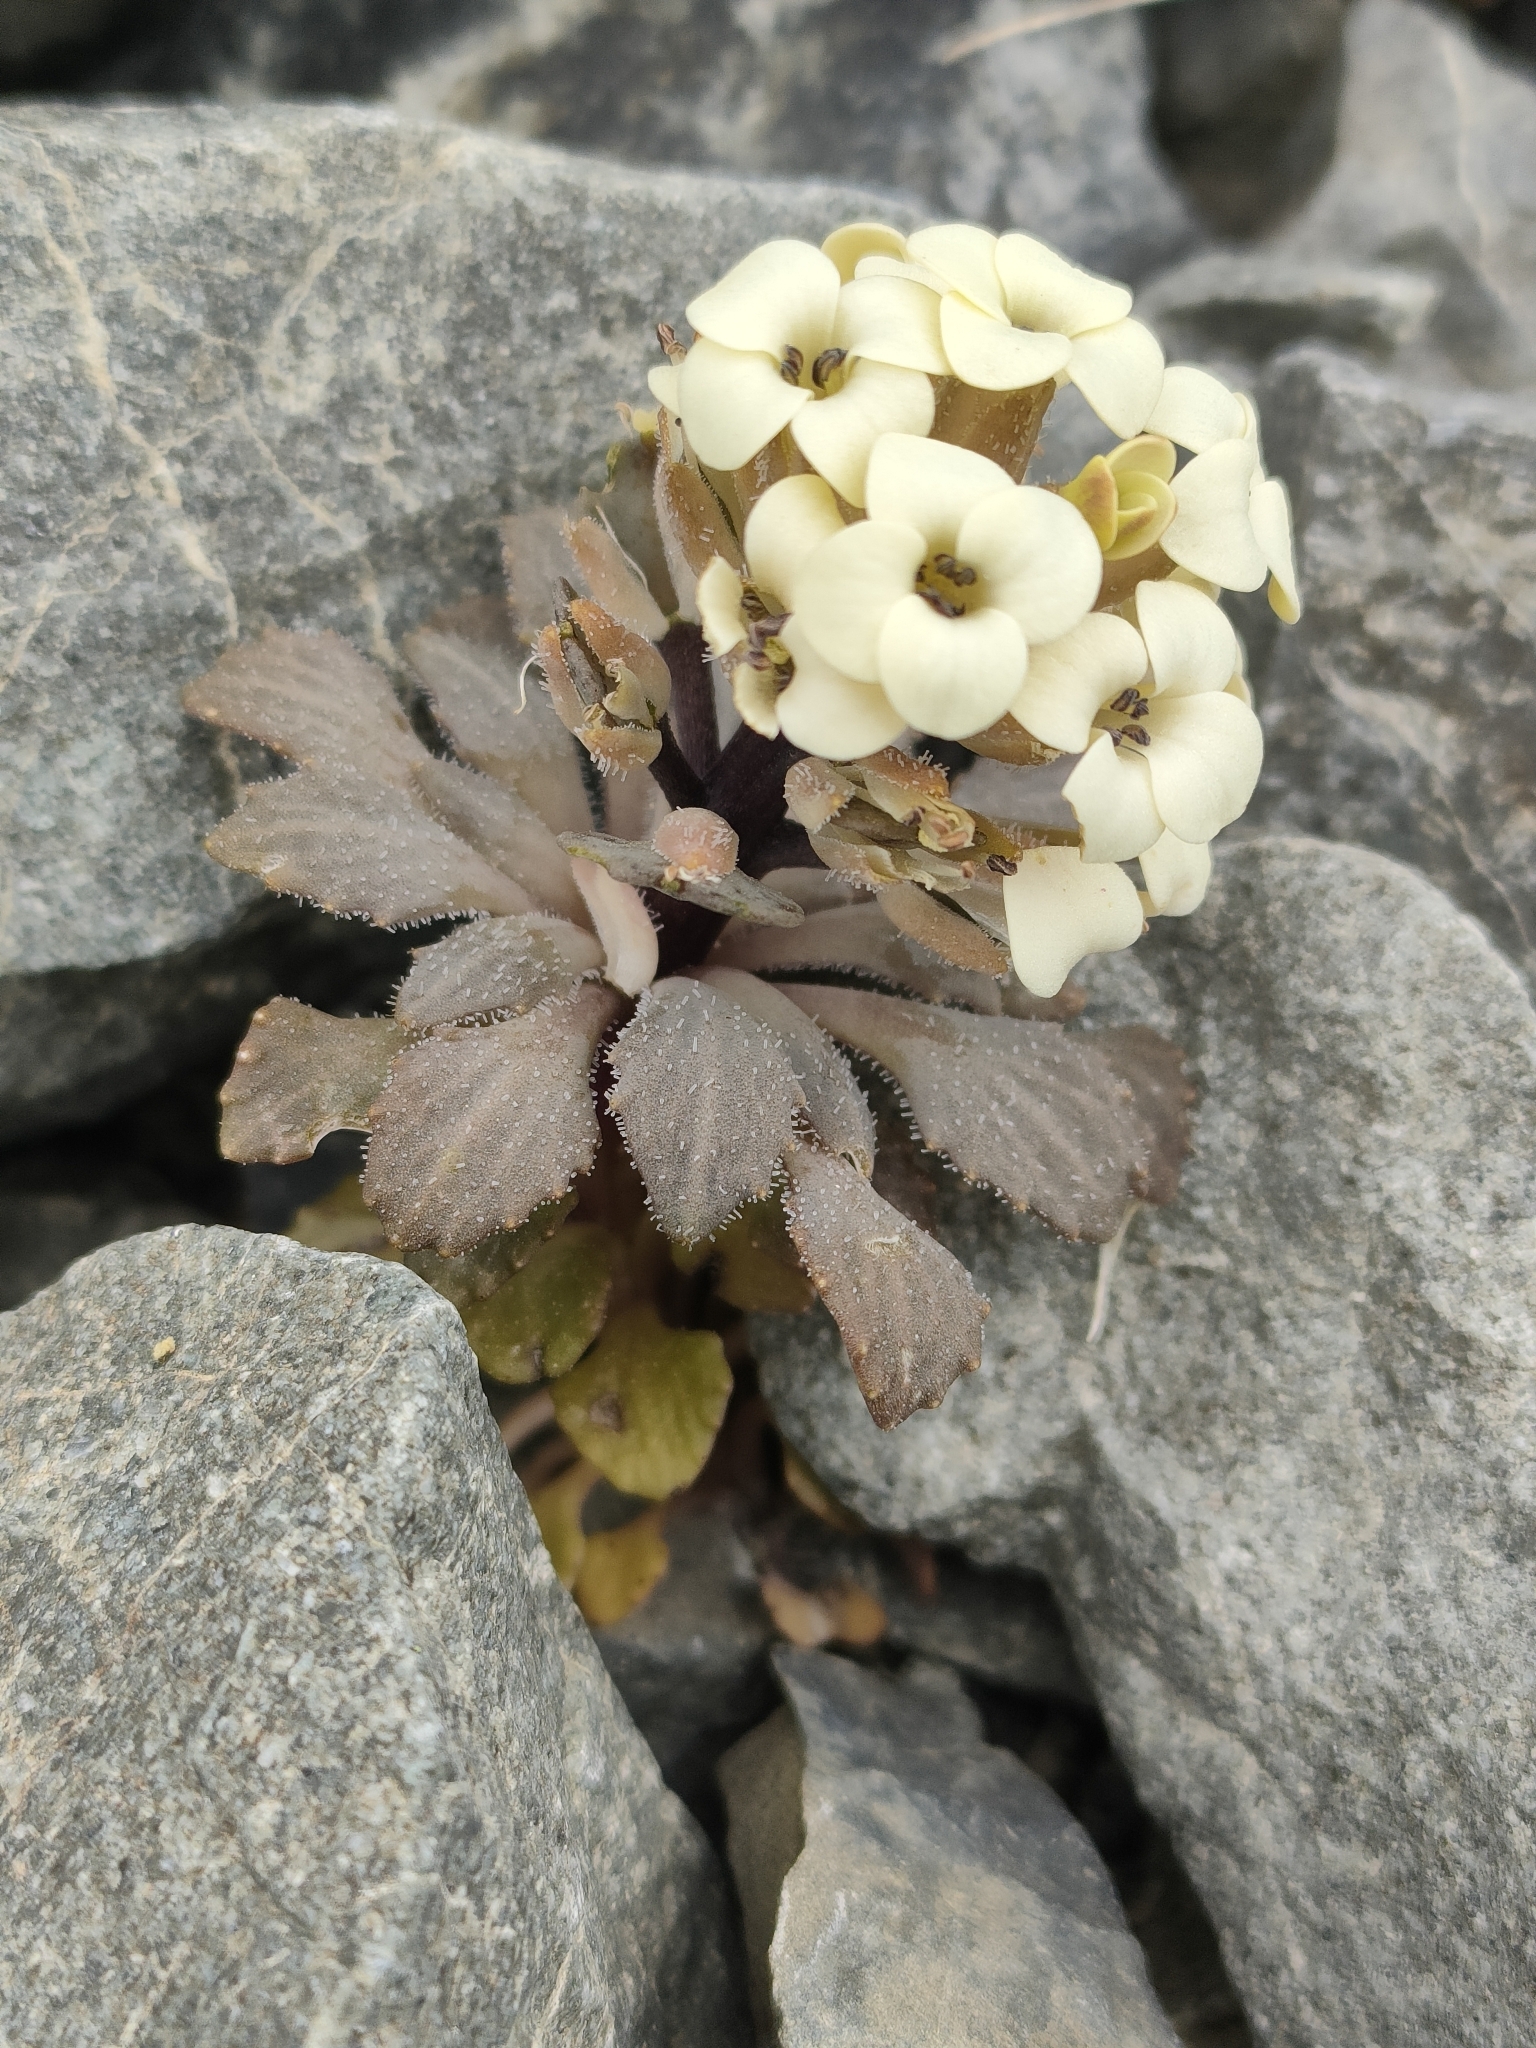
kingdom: Plantae
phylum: Tracheophyta
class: Magnoliopsida
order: Brassicales
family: Brassicaceae
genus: Notothlaspi
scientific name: Notothlaspi rosulatum
